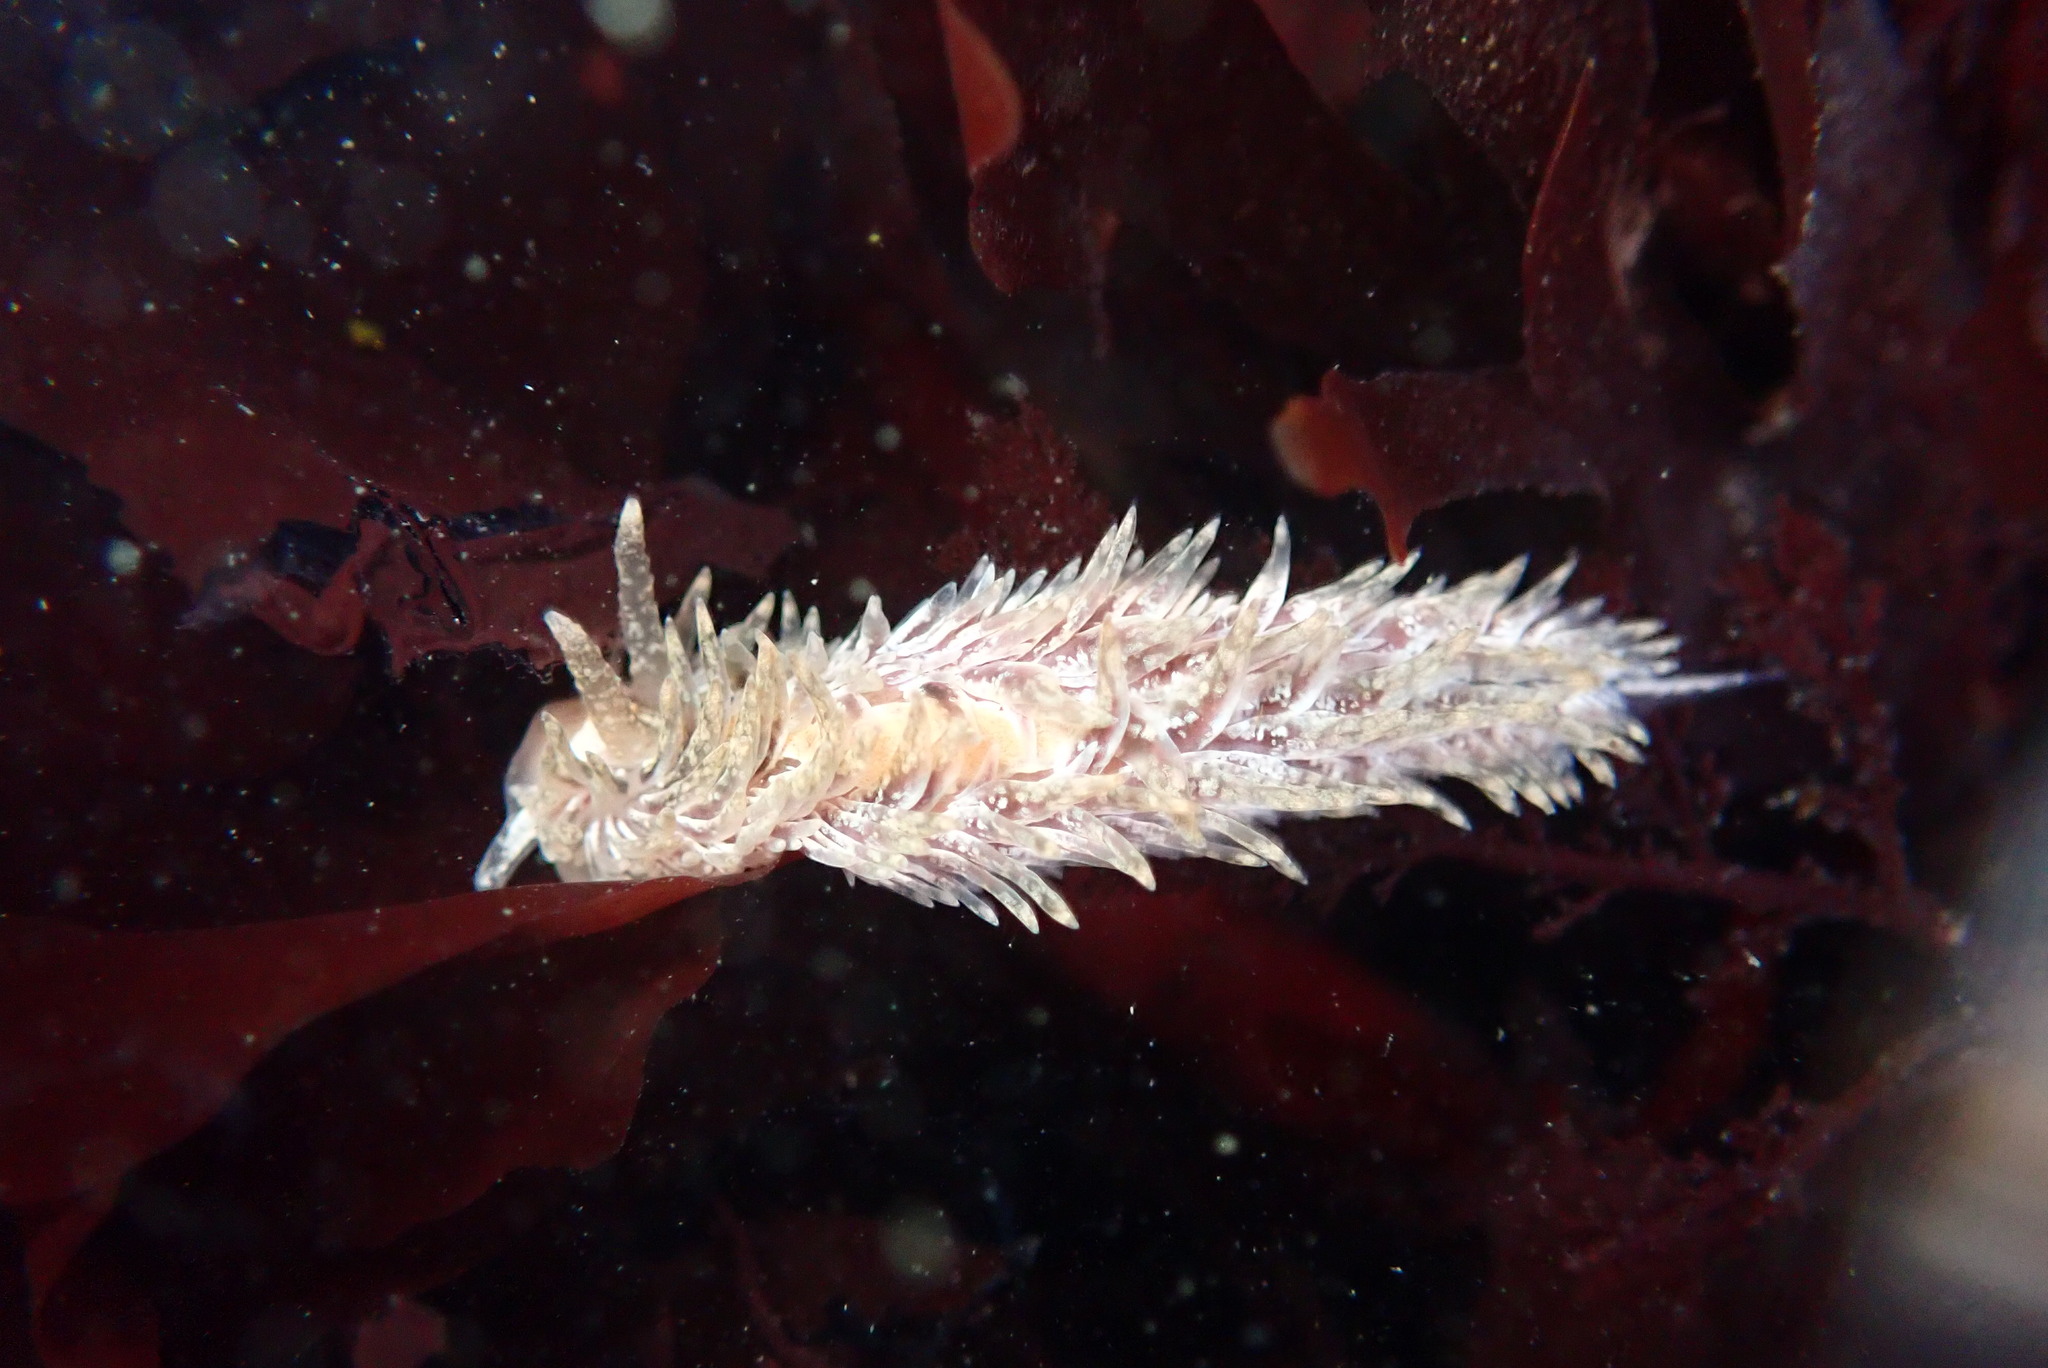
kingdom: Animalia
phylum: Mollusca
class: Gastropoda
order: Nudibranchia
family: Aeolidiidae
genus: Aeolidia
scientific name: Aeolidia loui
